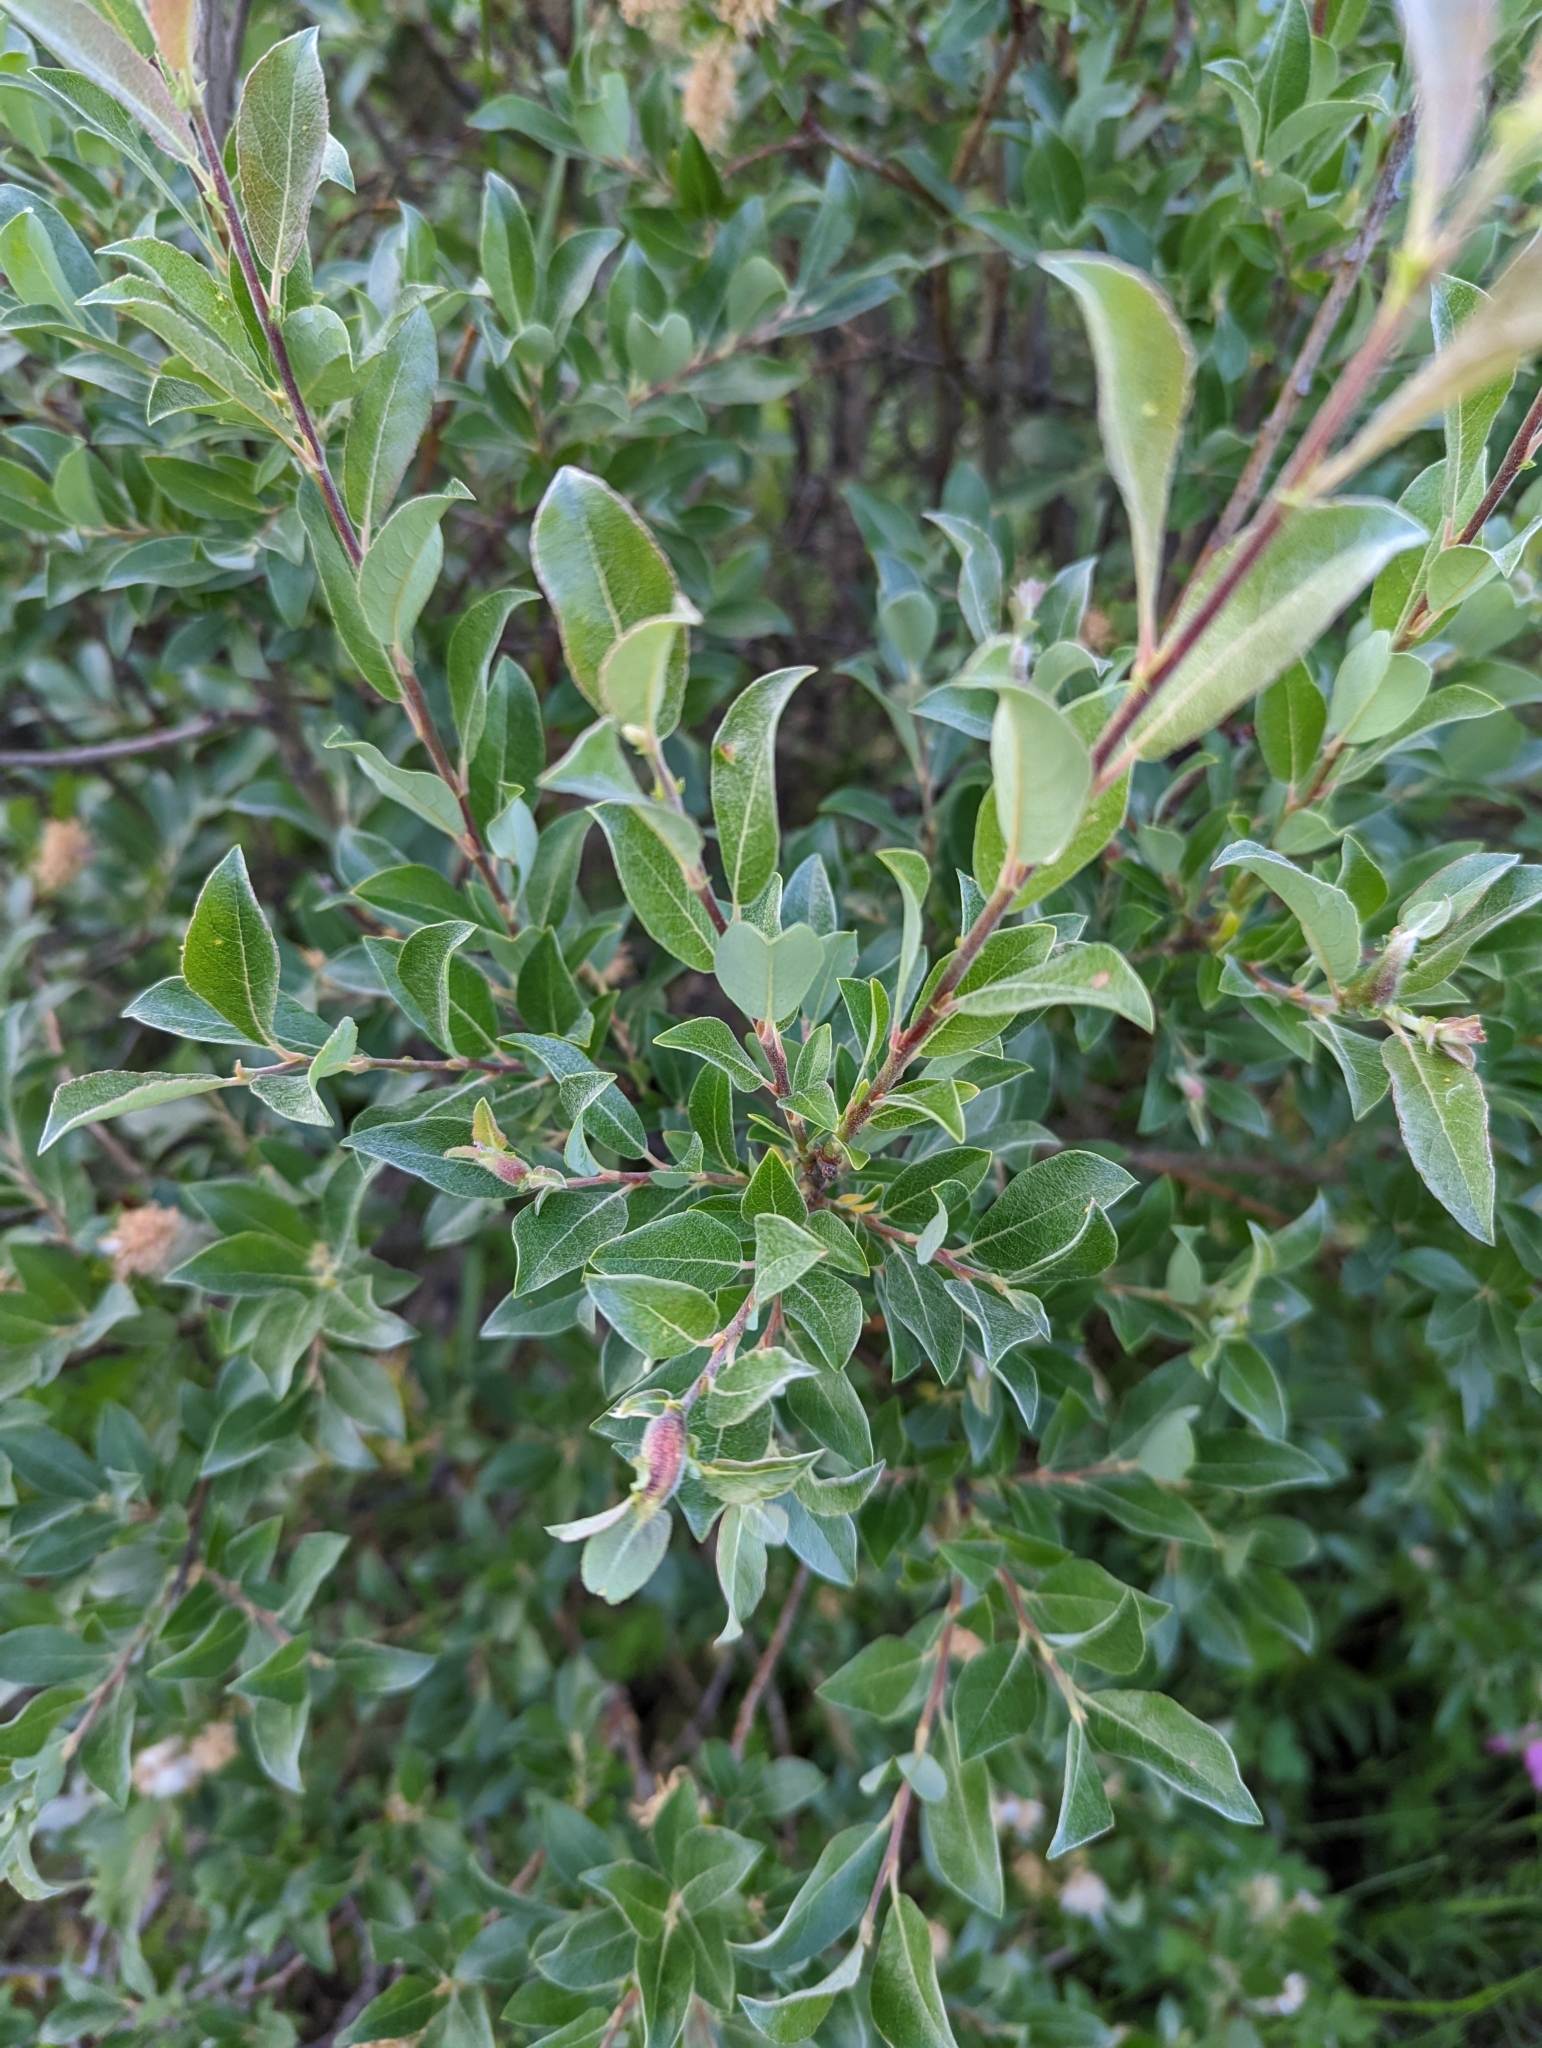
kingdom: Plantae
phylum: Tracheophyta
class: Magnoliopsida
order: Malpighiales
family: Salicaceae
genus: Salix
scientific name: Salix bebbiana
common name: Bebb's willow
